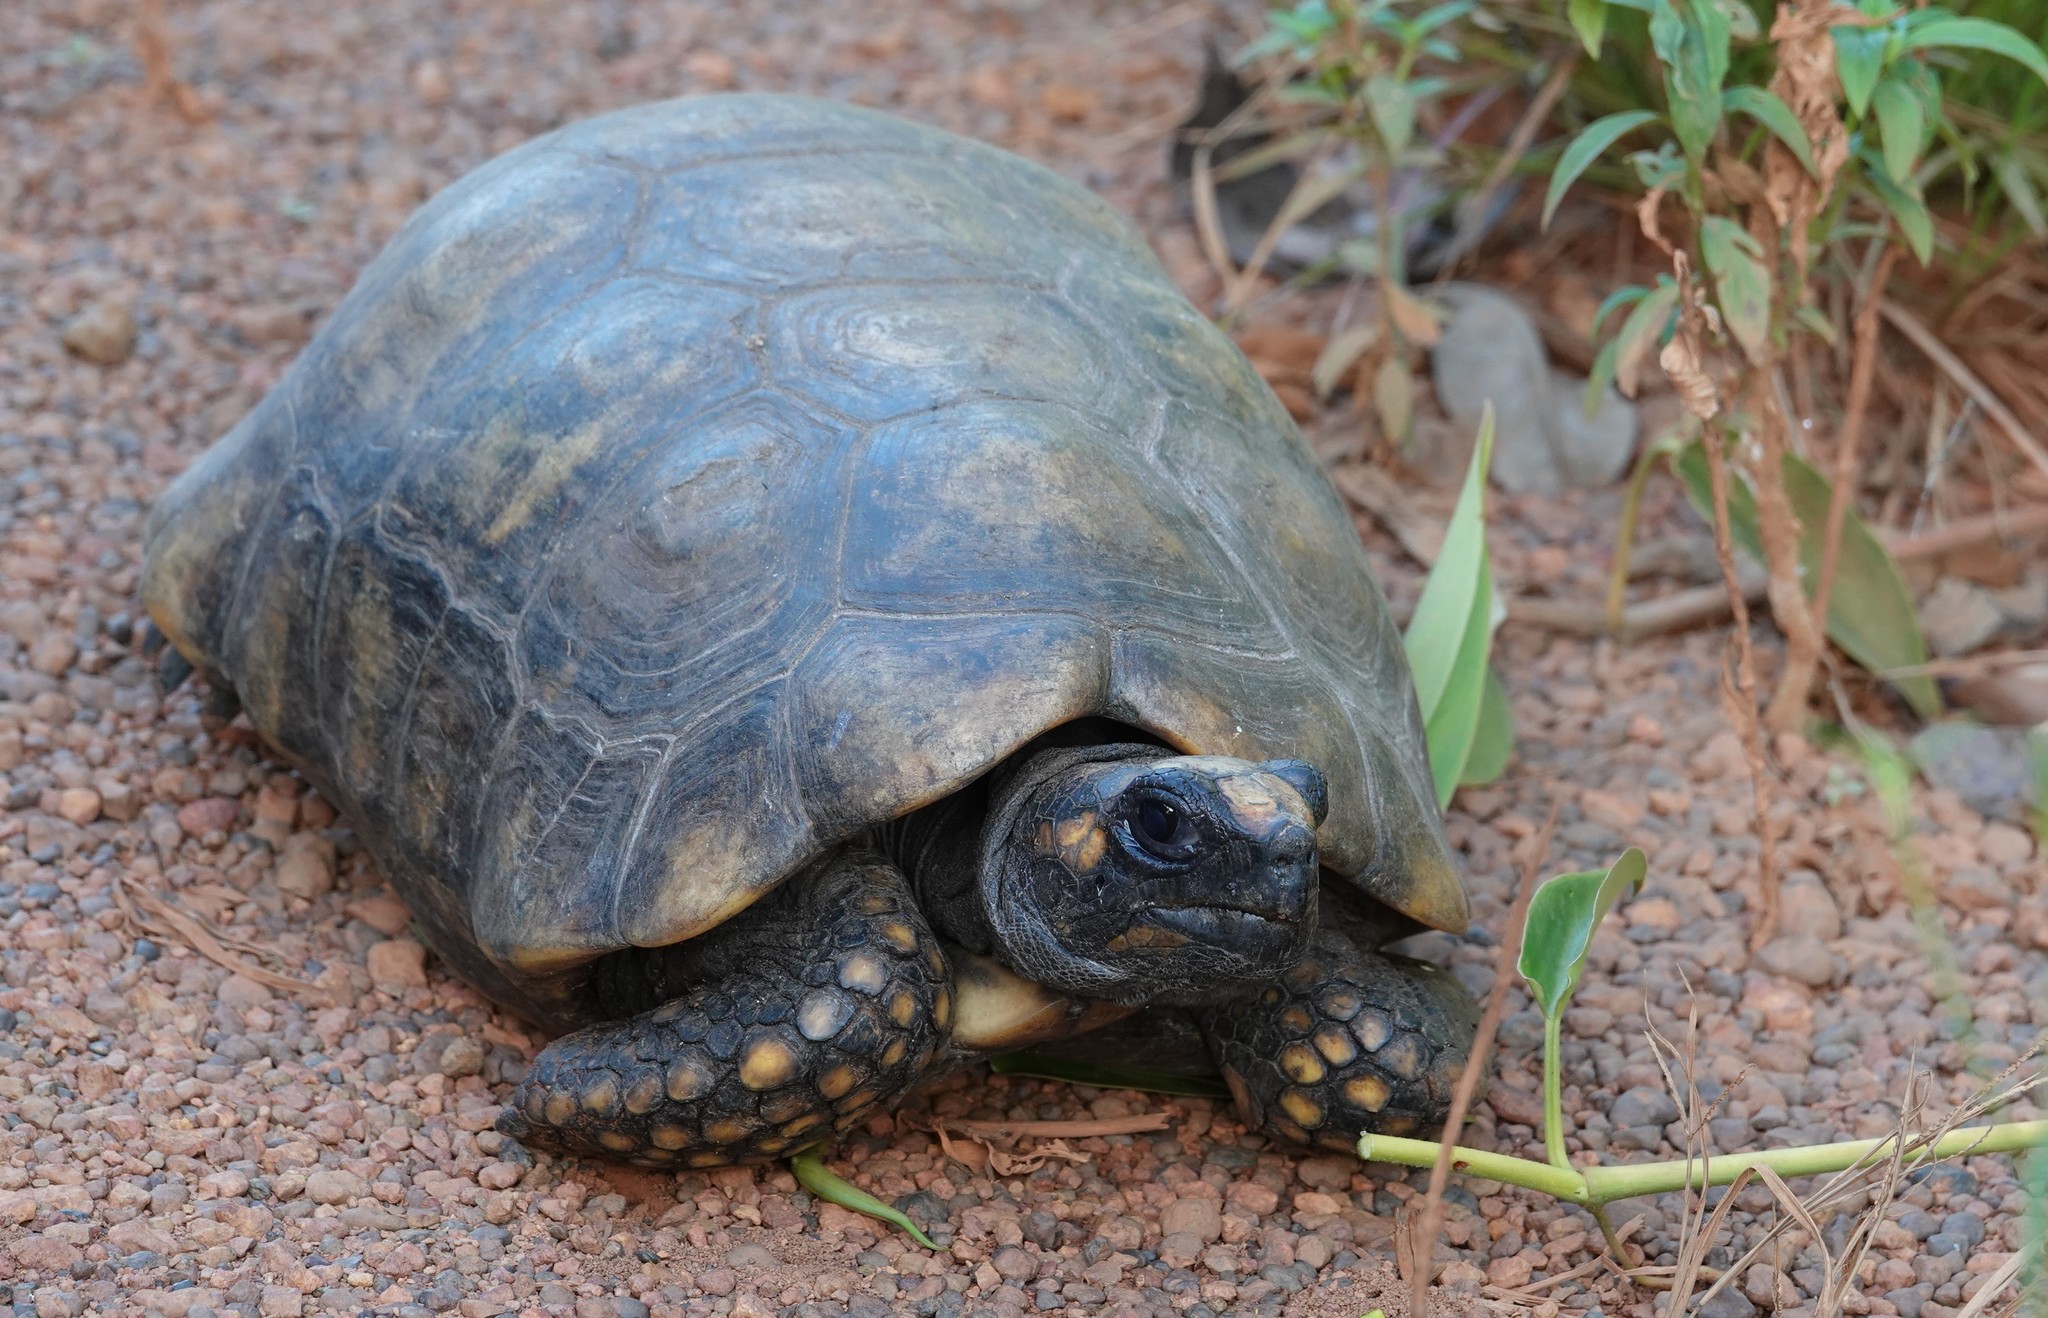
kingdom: Animalia
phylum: Chordata
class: Testudines
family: Testudinidae
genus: Chelonoidis
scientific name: Chelonoidis denticulatus
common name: Yellow-footed tortoise
